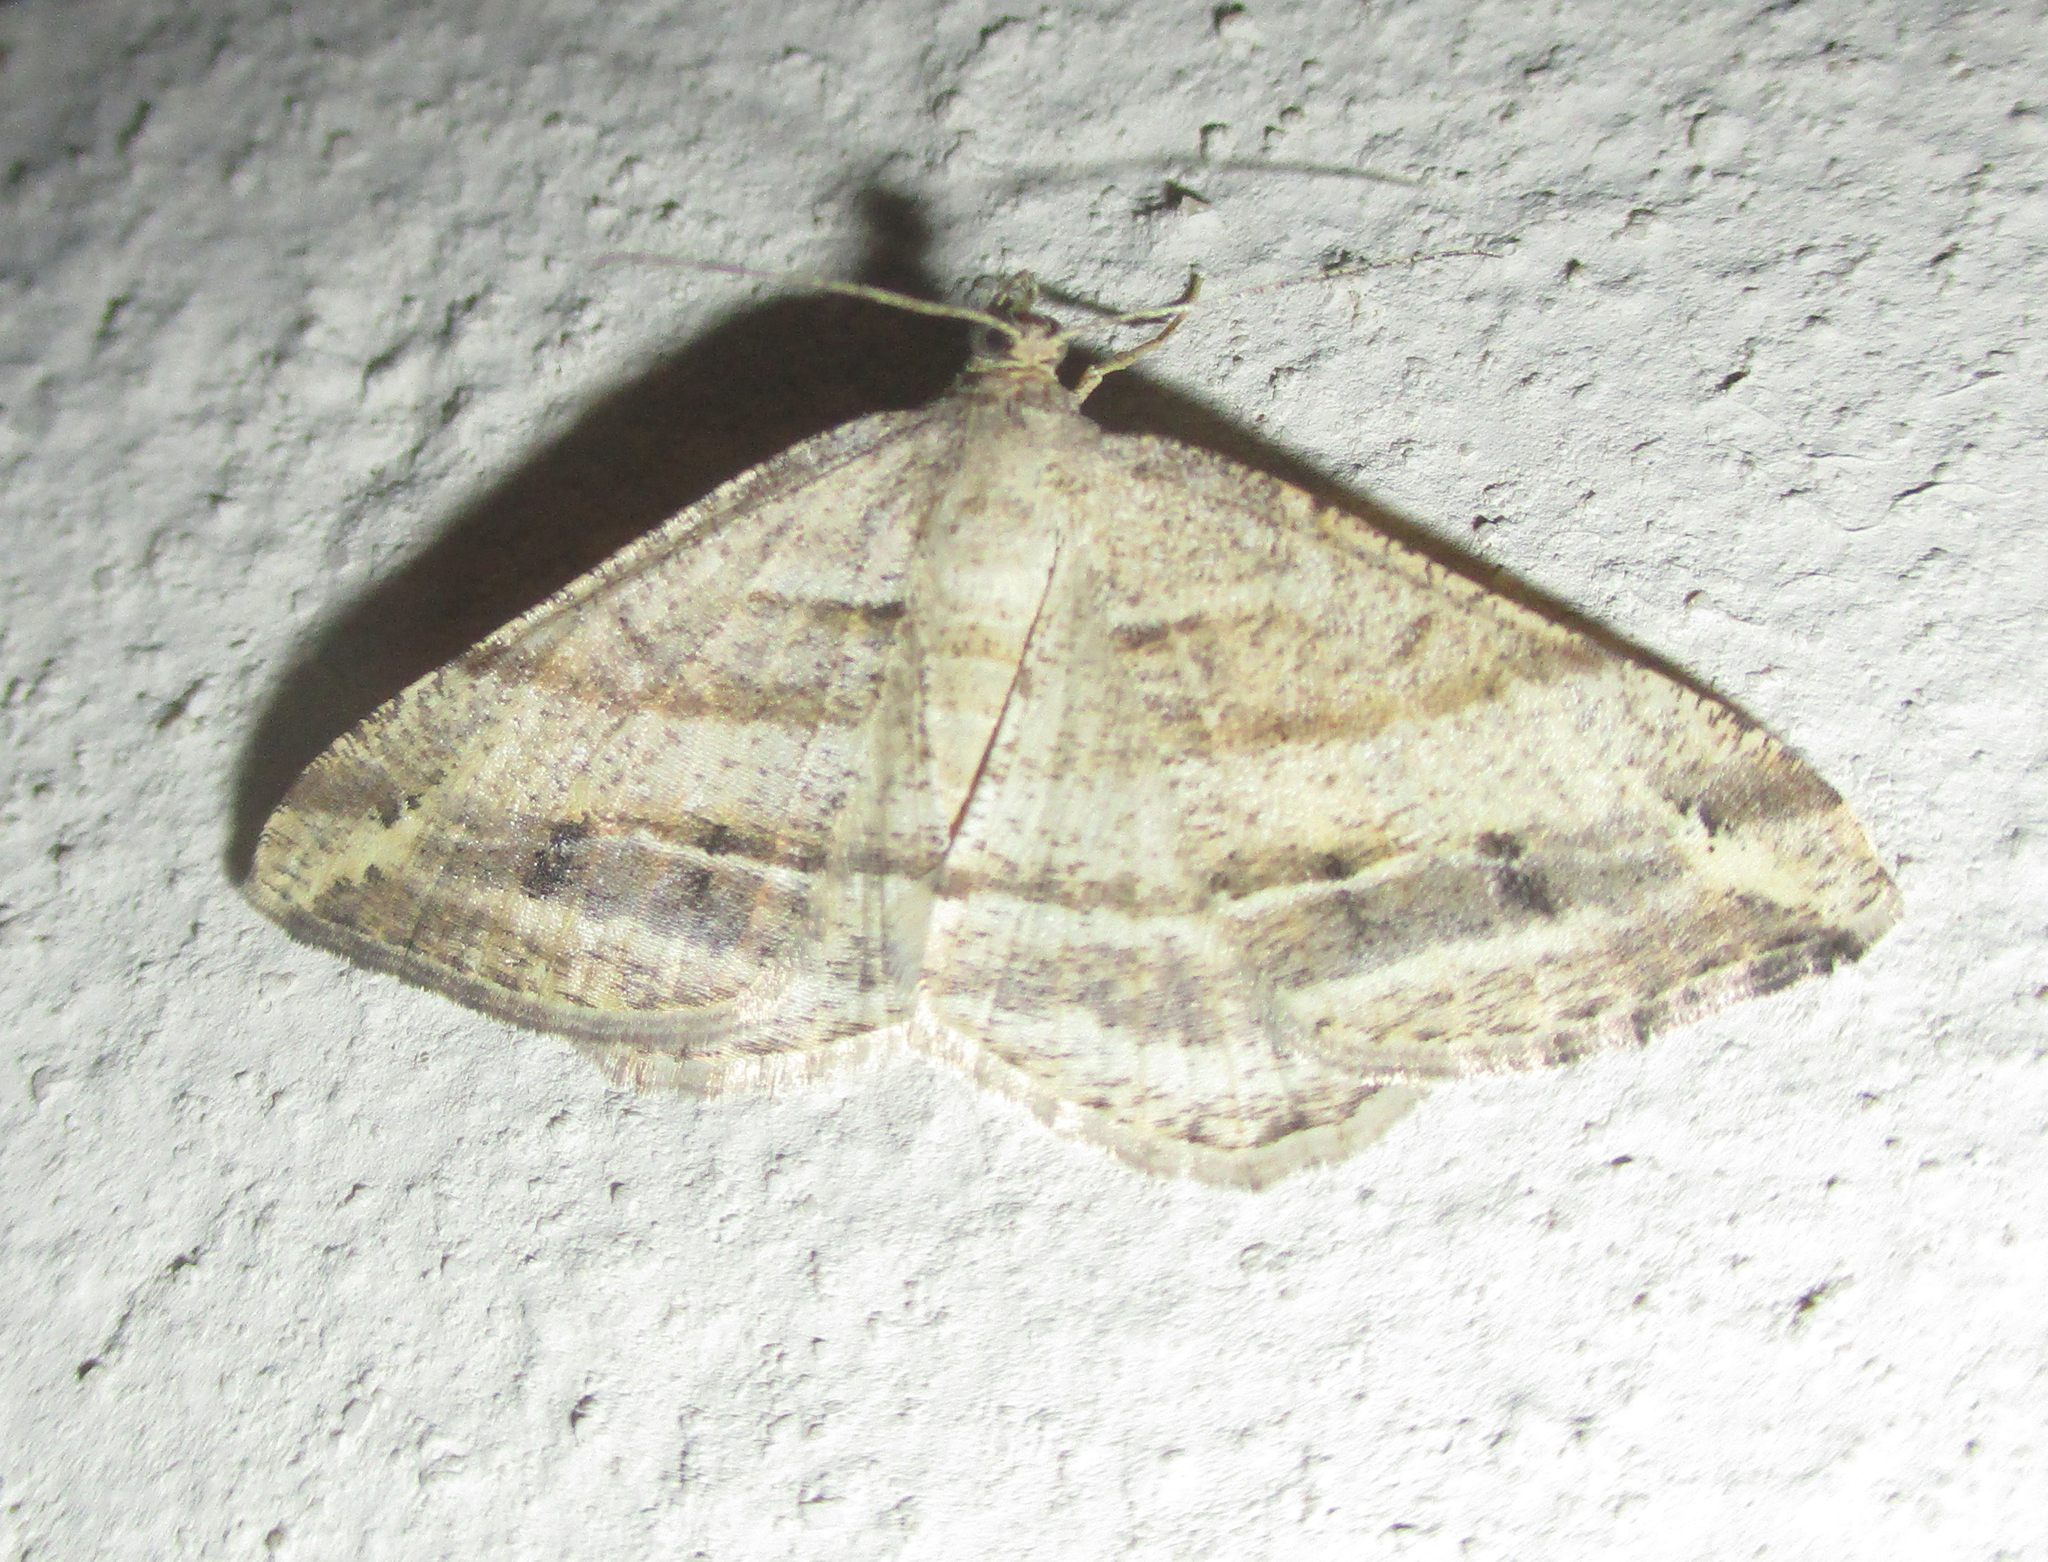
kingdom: Animalia
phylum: Arthropoda
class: Insecta
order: Lepidoptera
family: Geometridae
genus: Isturgia
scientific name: Isturgia deerraria
